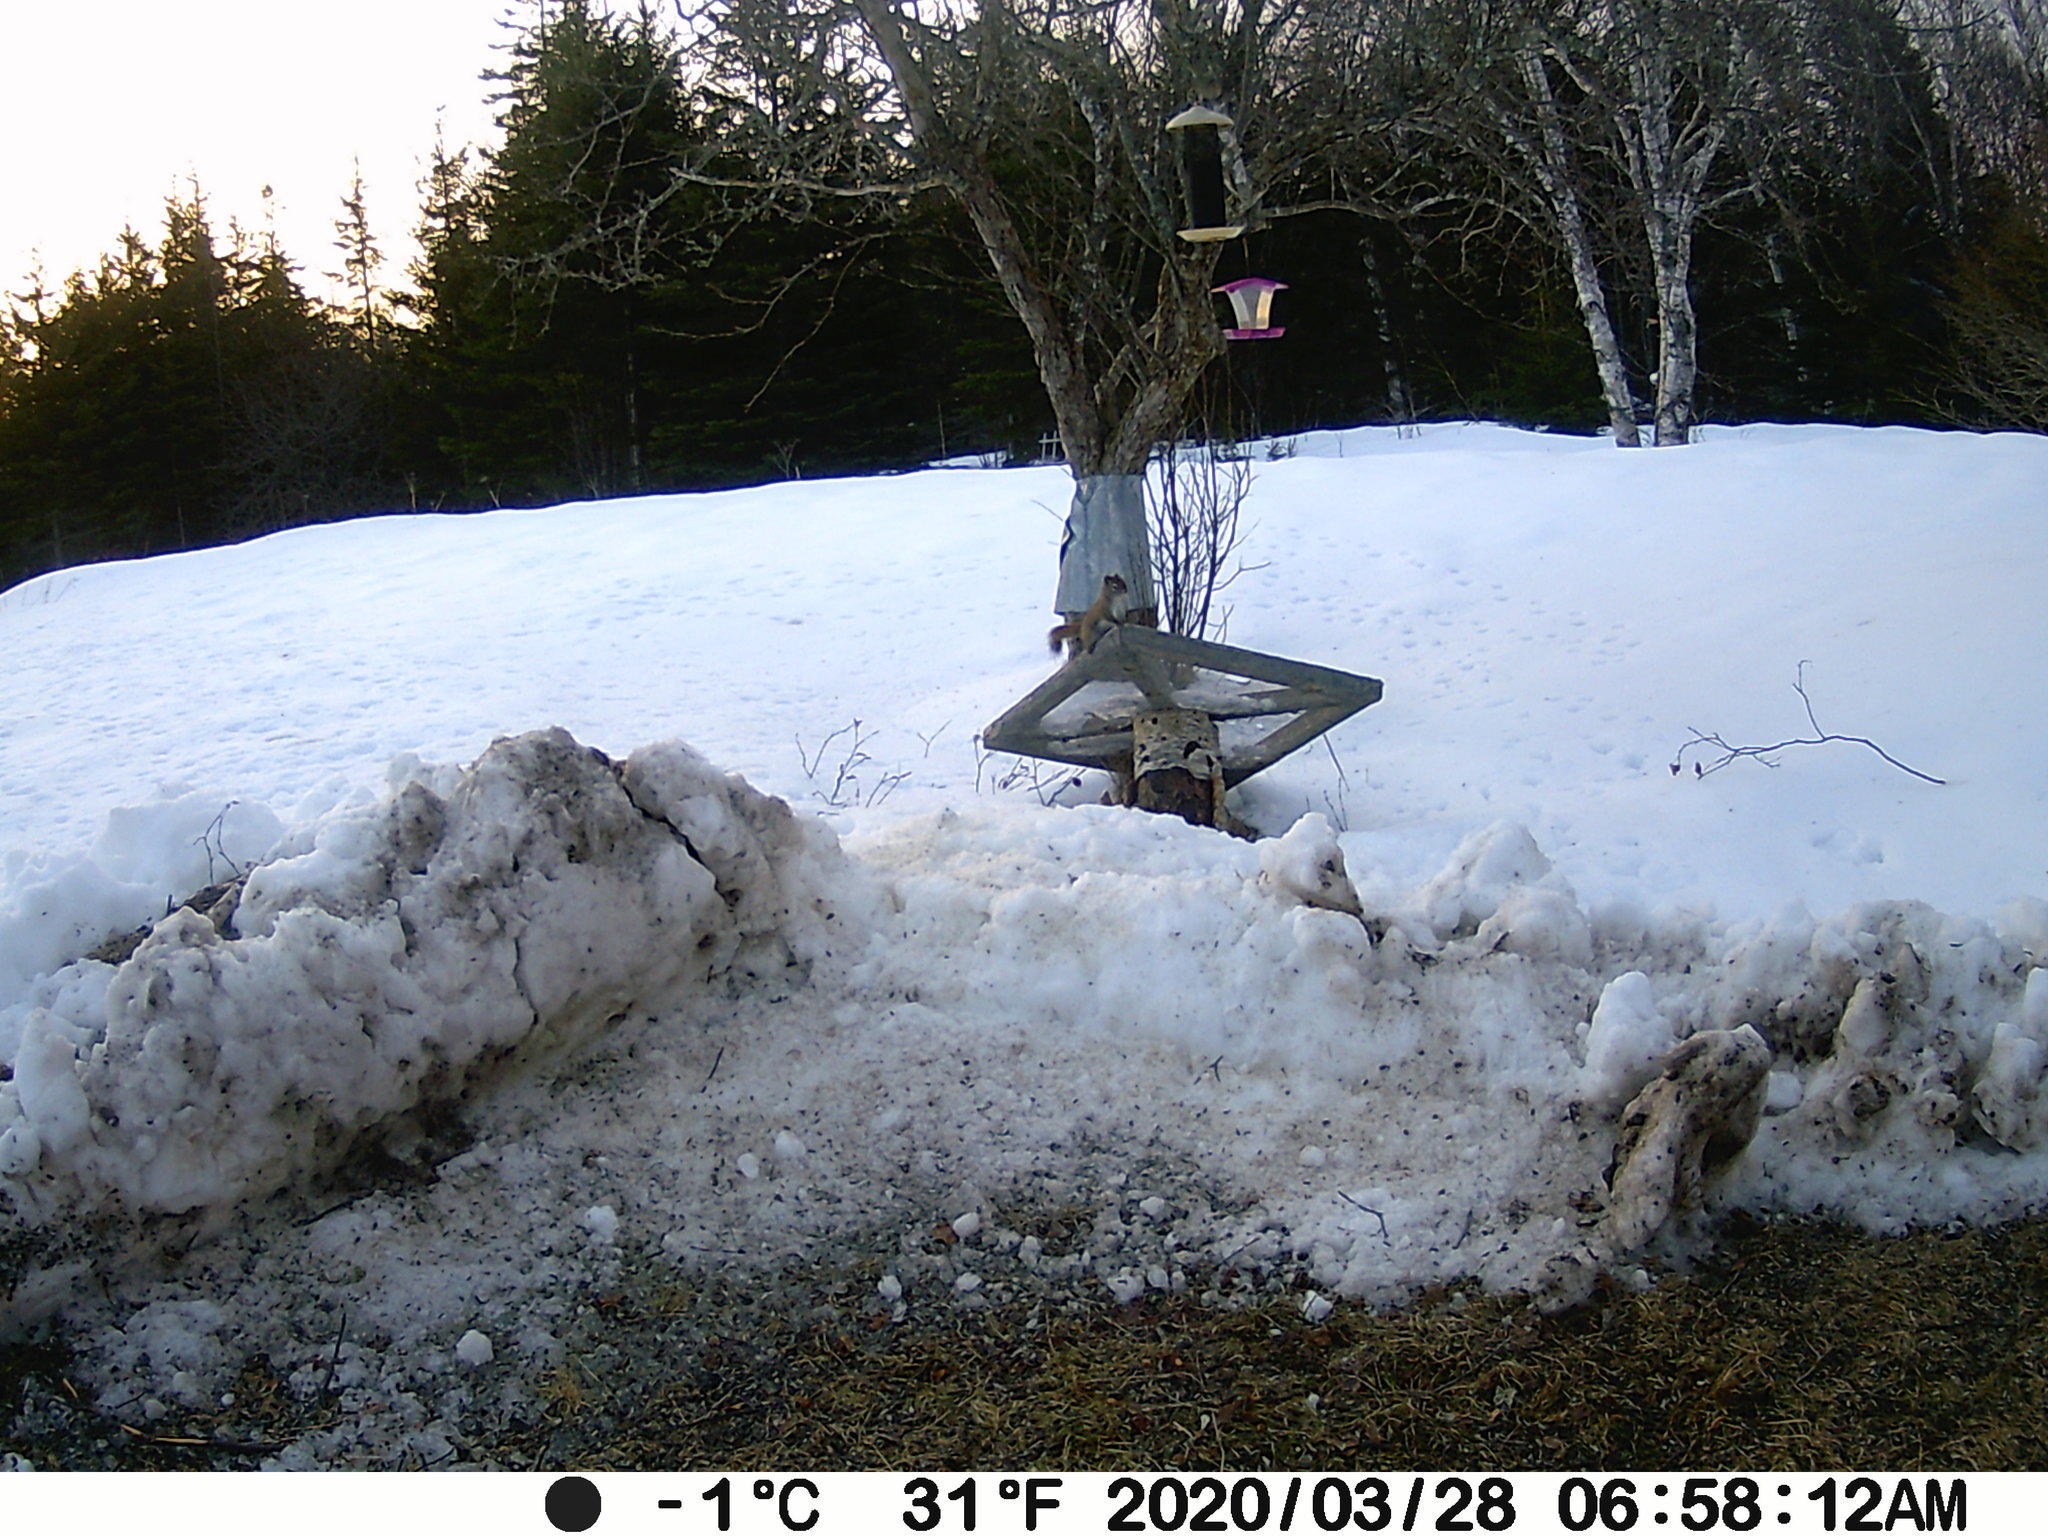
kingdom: Animalia
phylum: Chordata
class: Mammalia
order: Rodentia
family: Sciuridae
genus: Tamiasciurus
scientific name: Tamiasciurus hudsonicus
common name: Red squirrel
